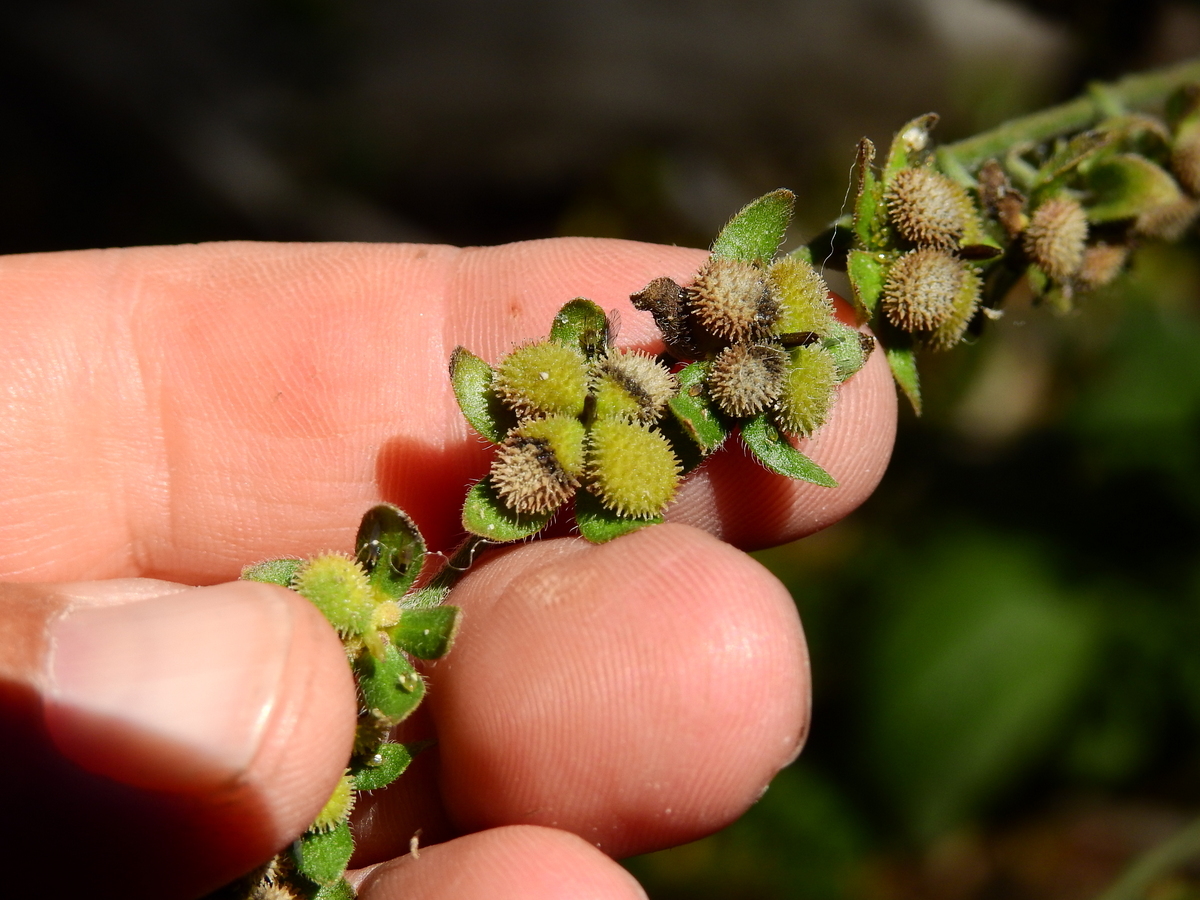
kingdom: Plantae
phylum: Tracheophyta
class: Magnoliopsida
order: Boraginales
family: Boraginaceae
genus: Cynoglossum
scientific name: Cynoglossum creticum
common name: Blue hound's tongue
